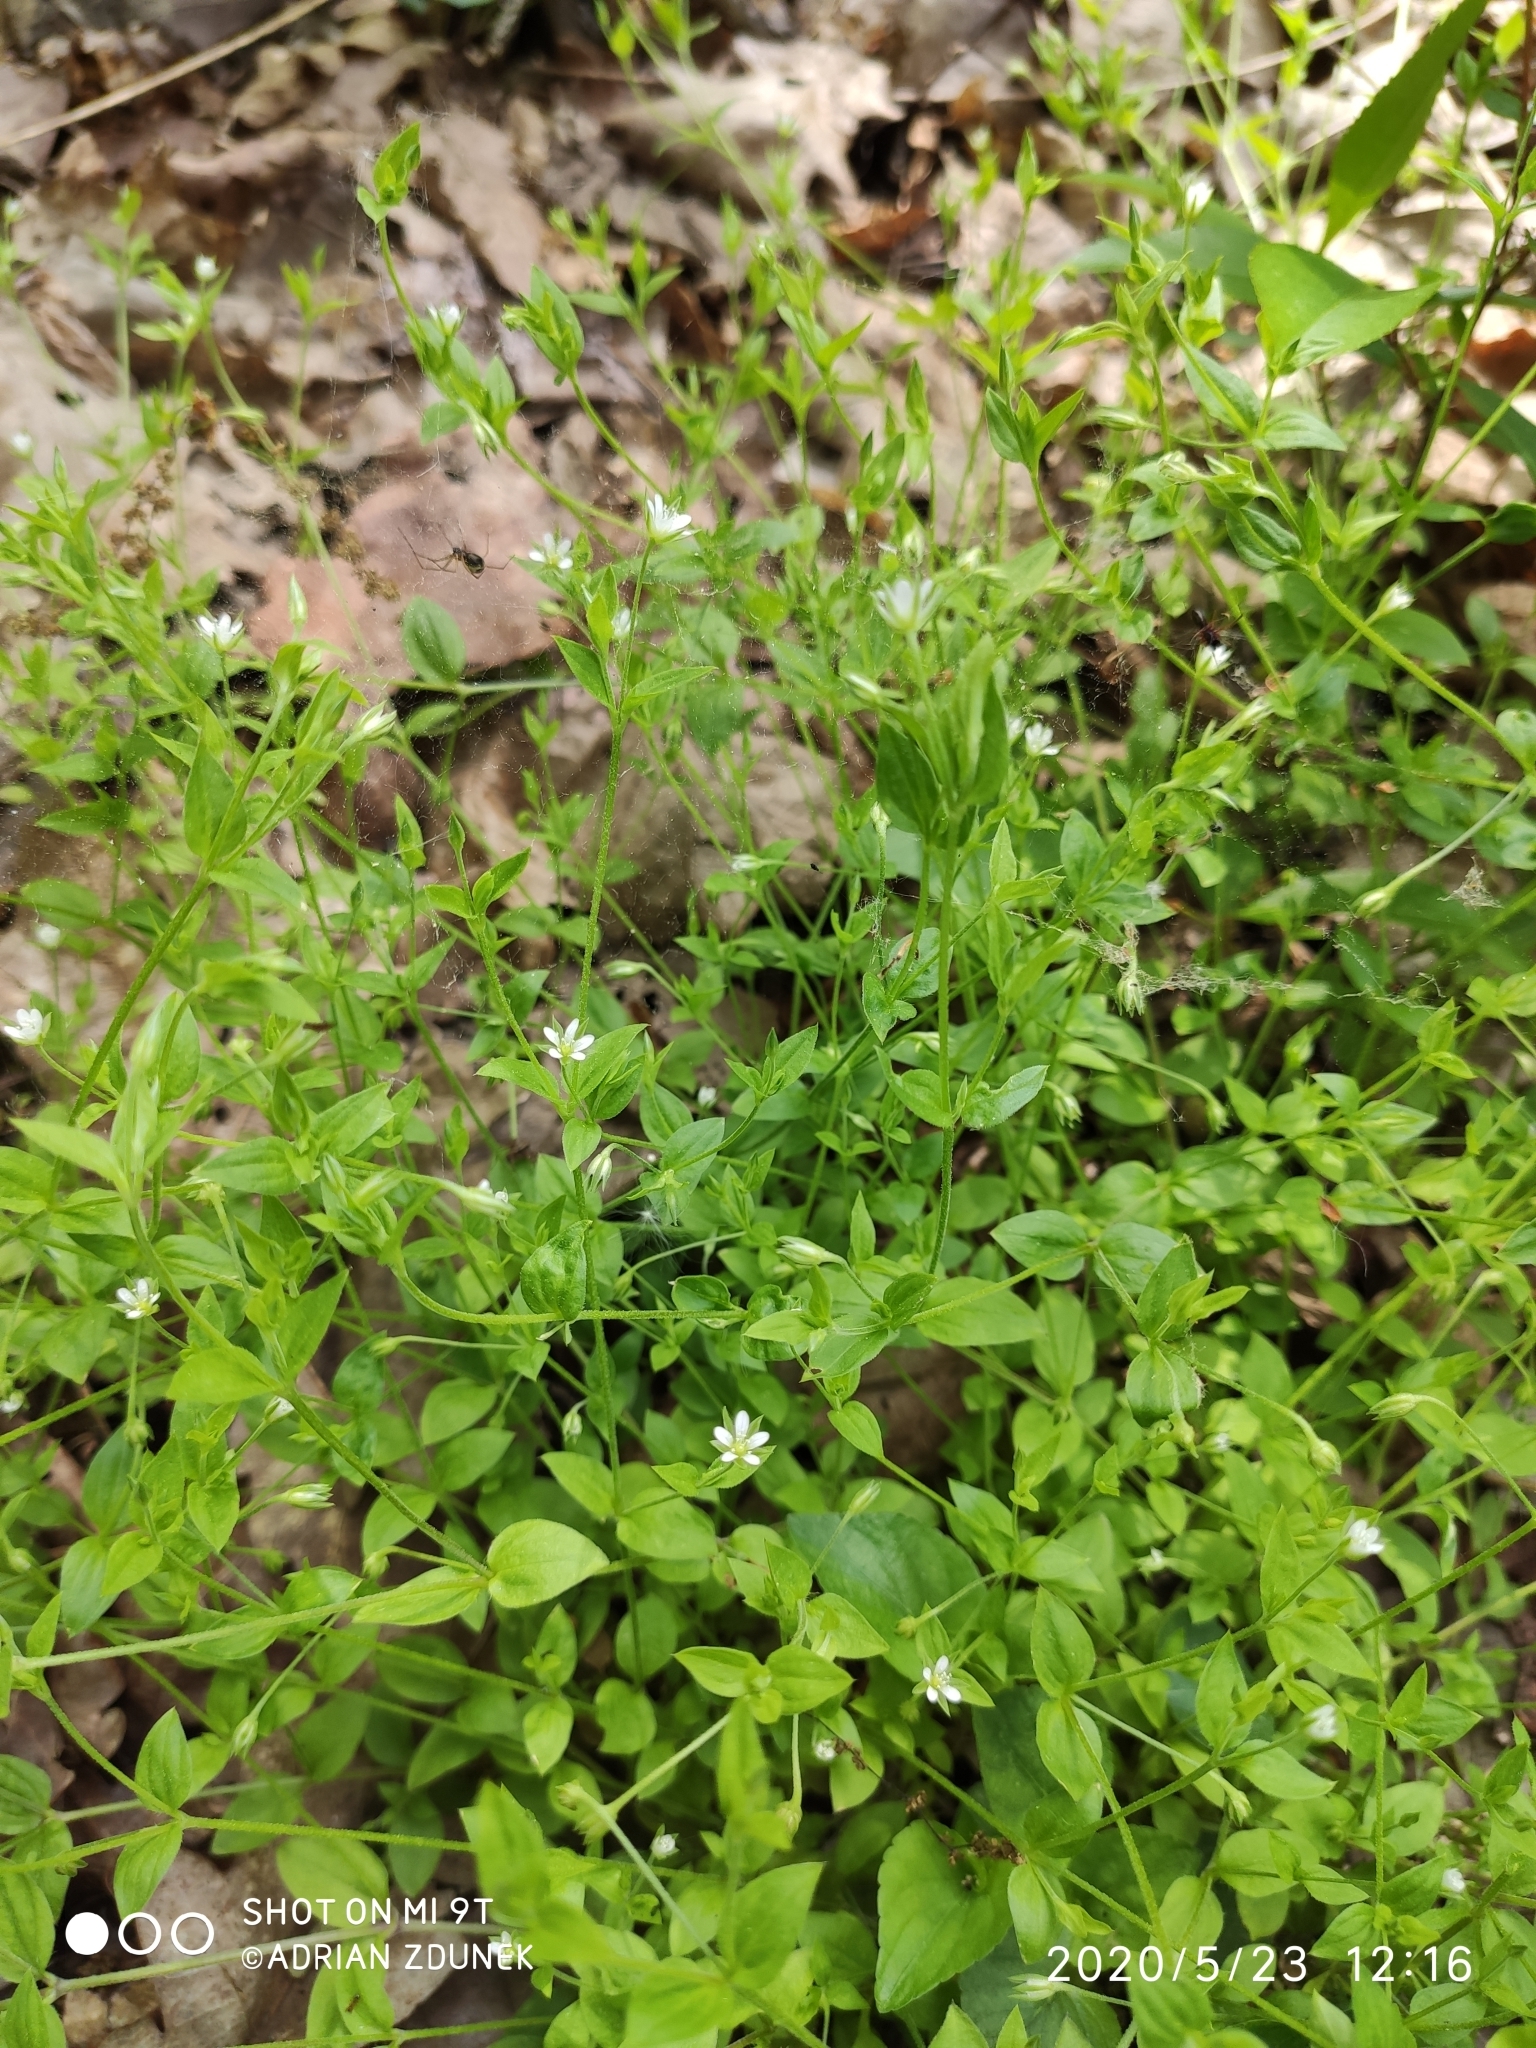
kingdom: Plantae
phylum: Tracheophyta
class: Magnoliopsida
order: Caryophyllales
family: Caryophyllaceae
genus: Moehringia
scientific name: Moehringia trinervia
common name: Three-nerved sandwort
